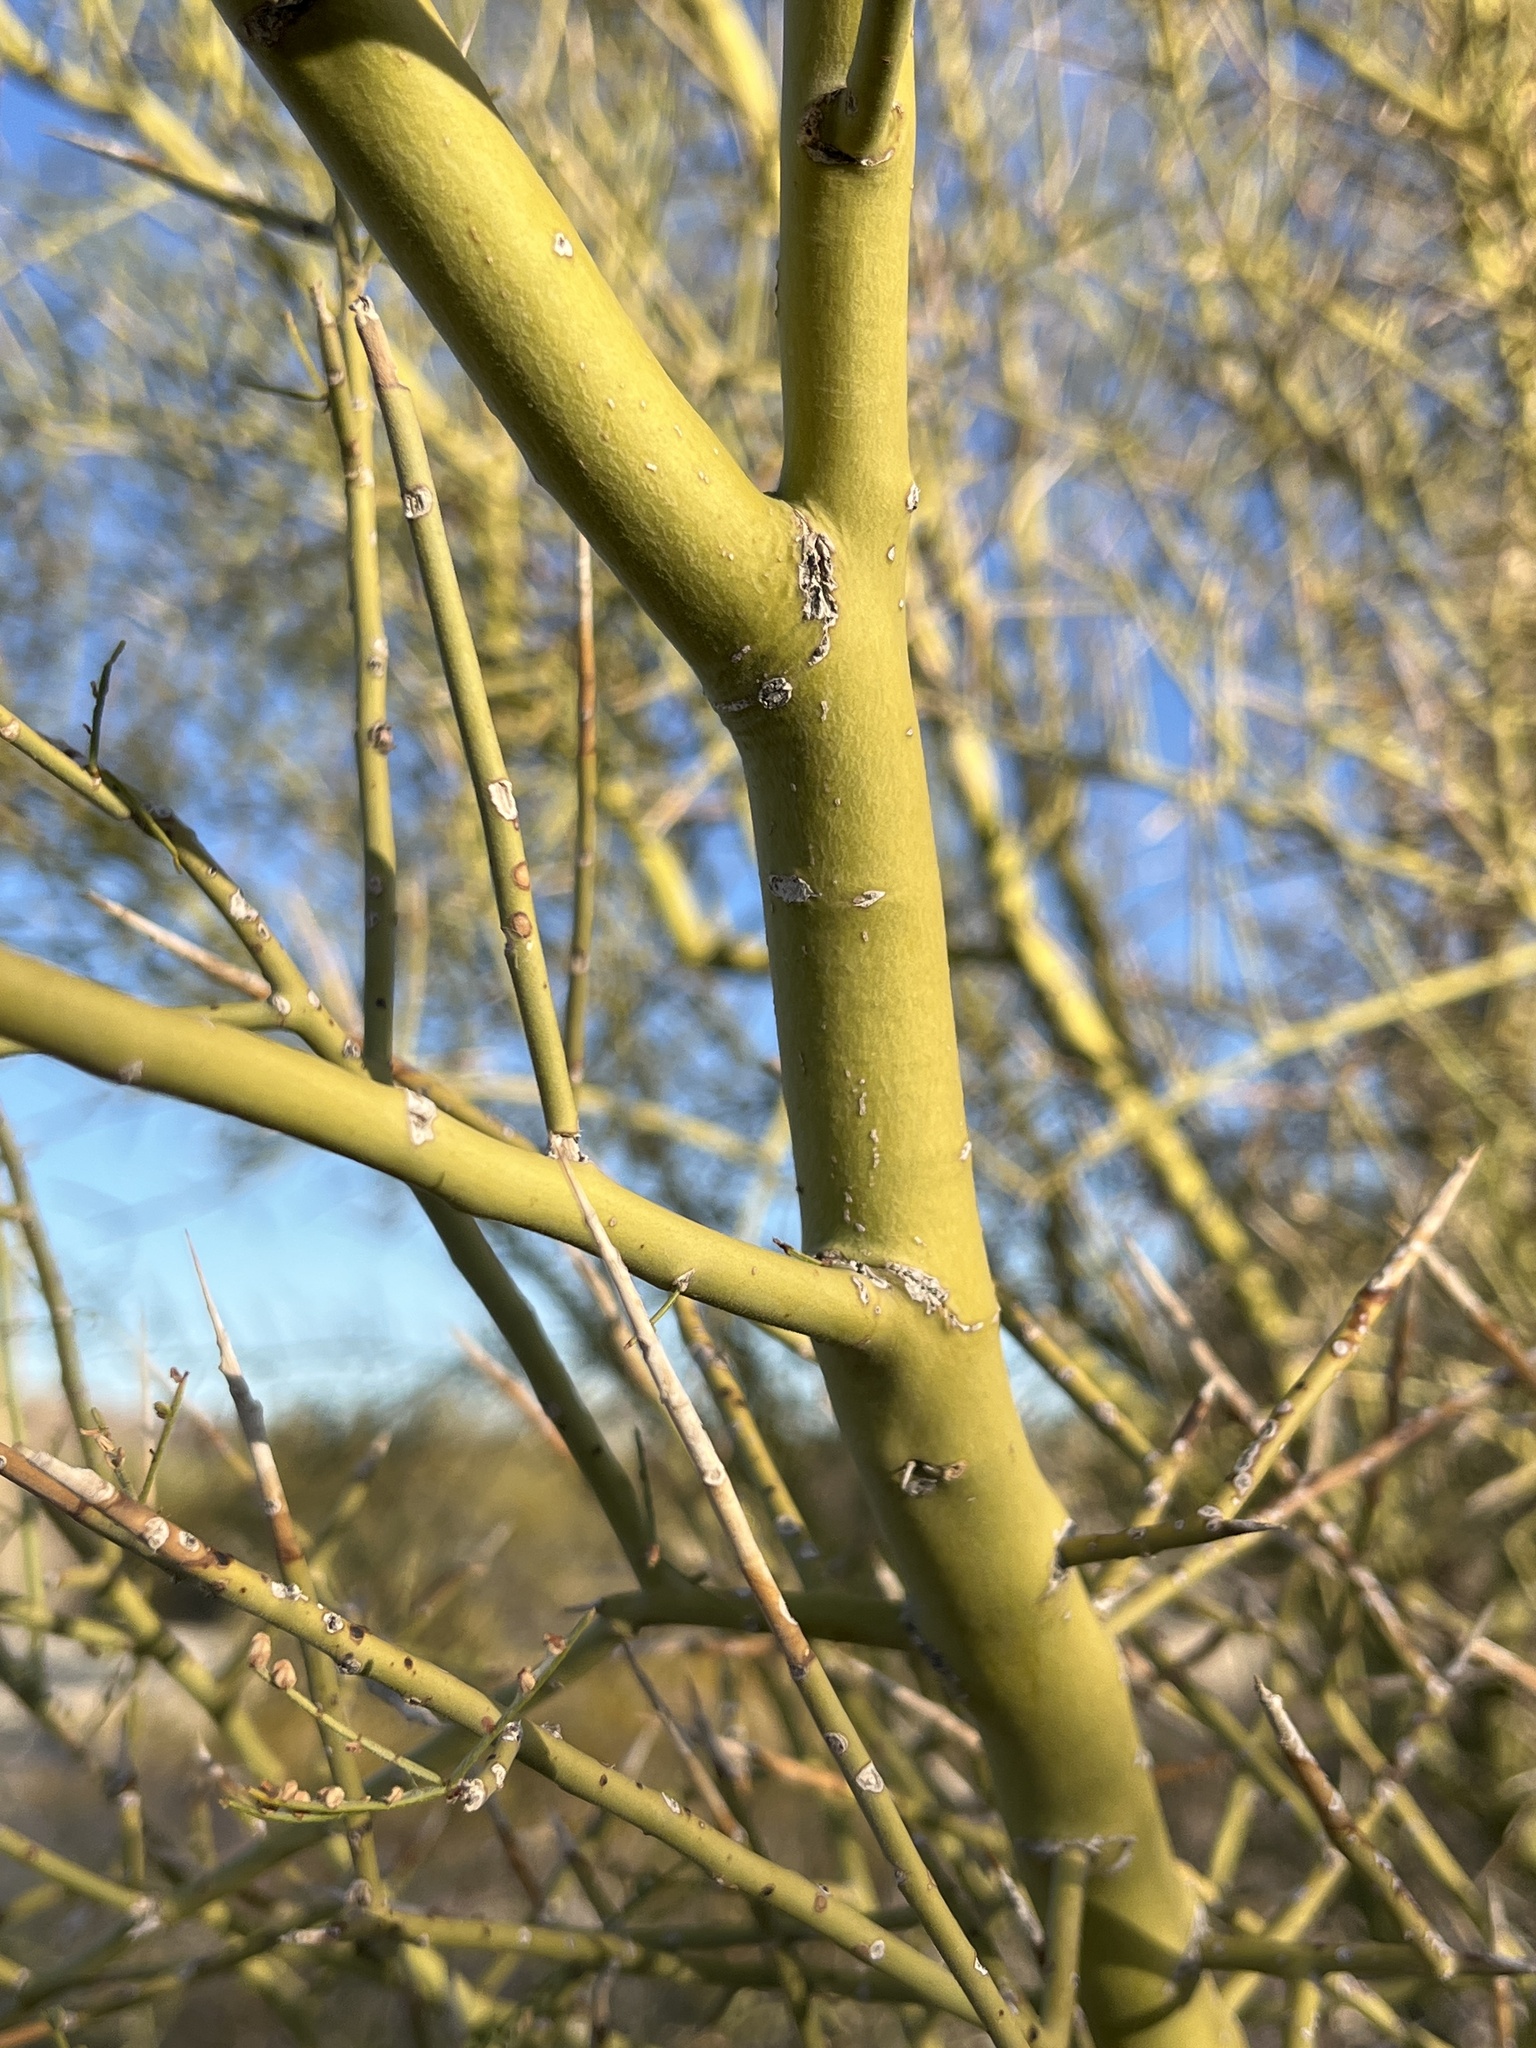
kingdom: Plantae
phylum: Tracheophyta
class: Magnoliopsida
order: Fabales
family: Fabaceae
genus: Parkinsonia
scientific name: Parkinsonia microphylla
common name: Yellow paloverde
